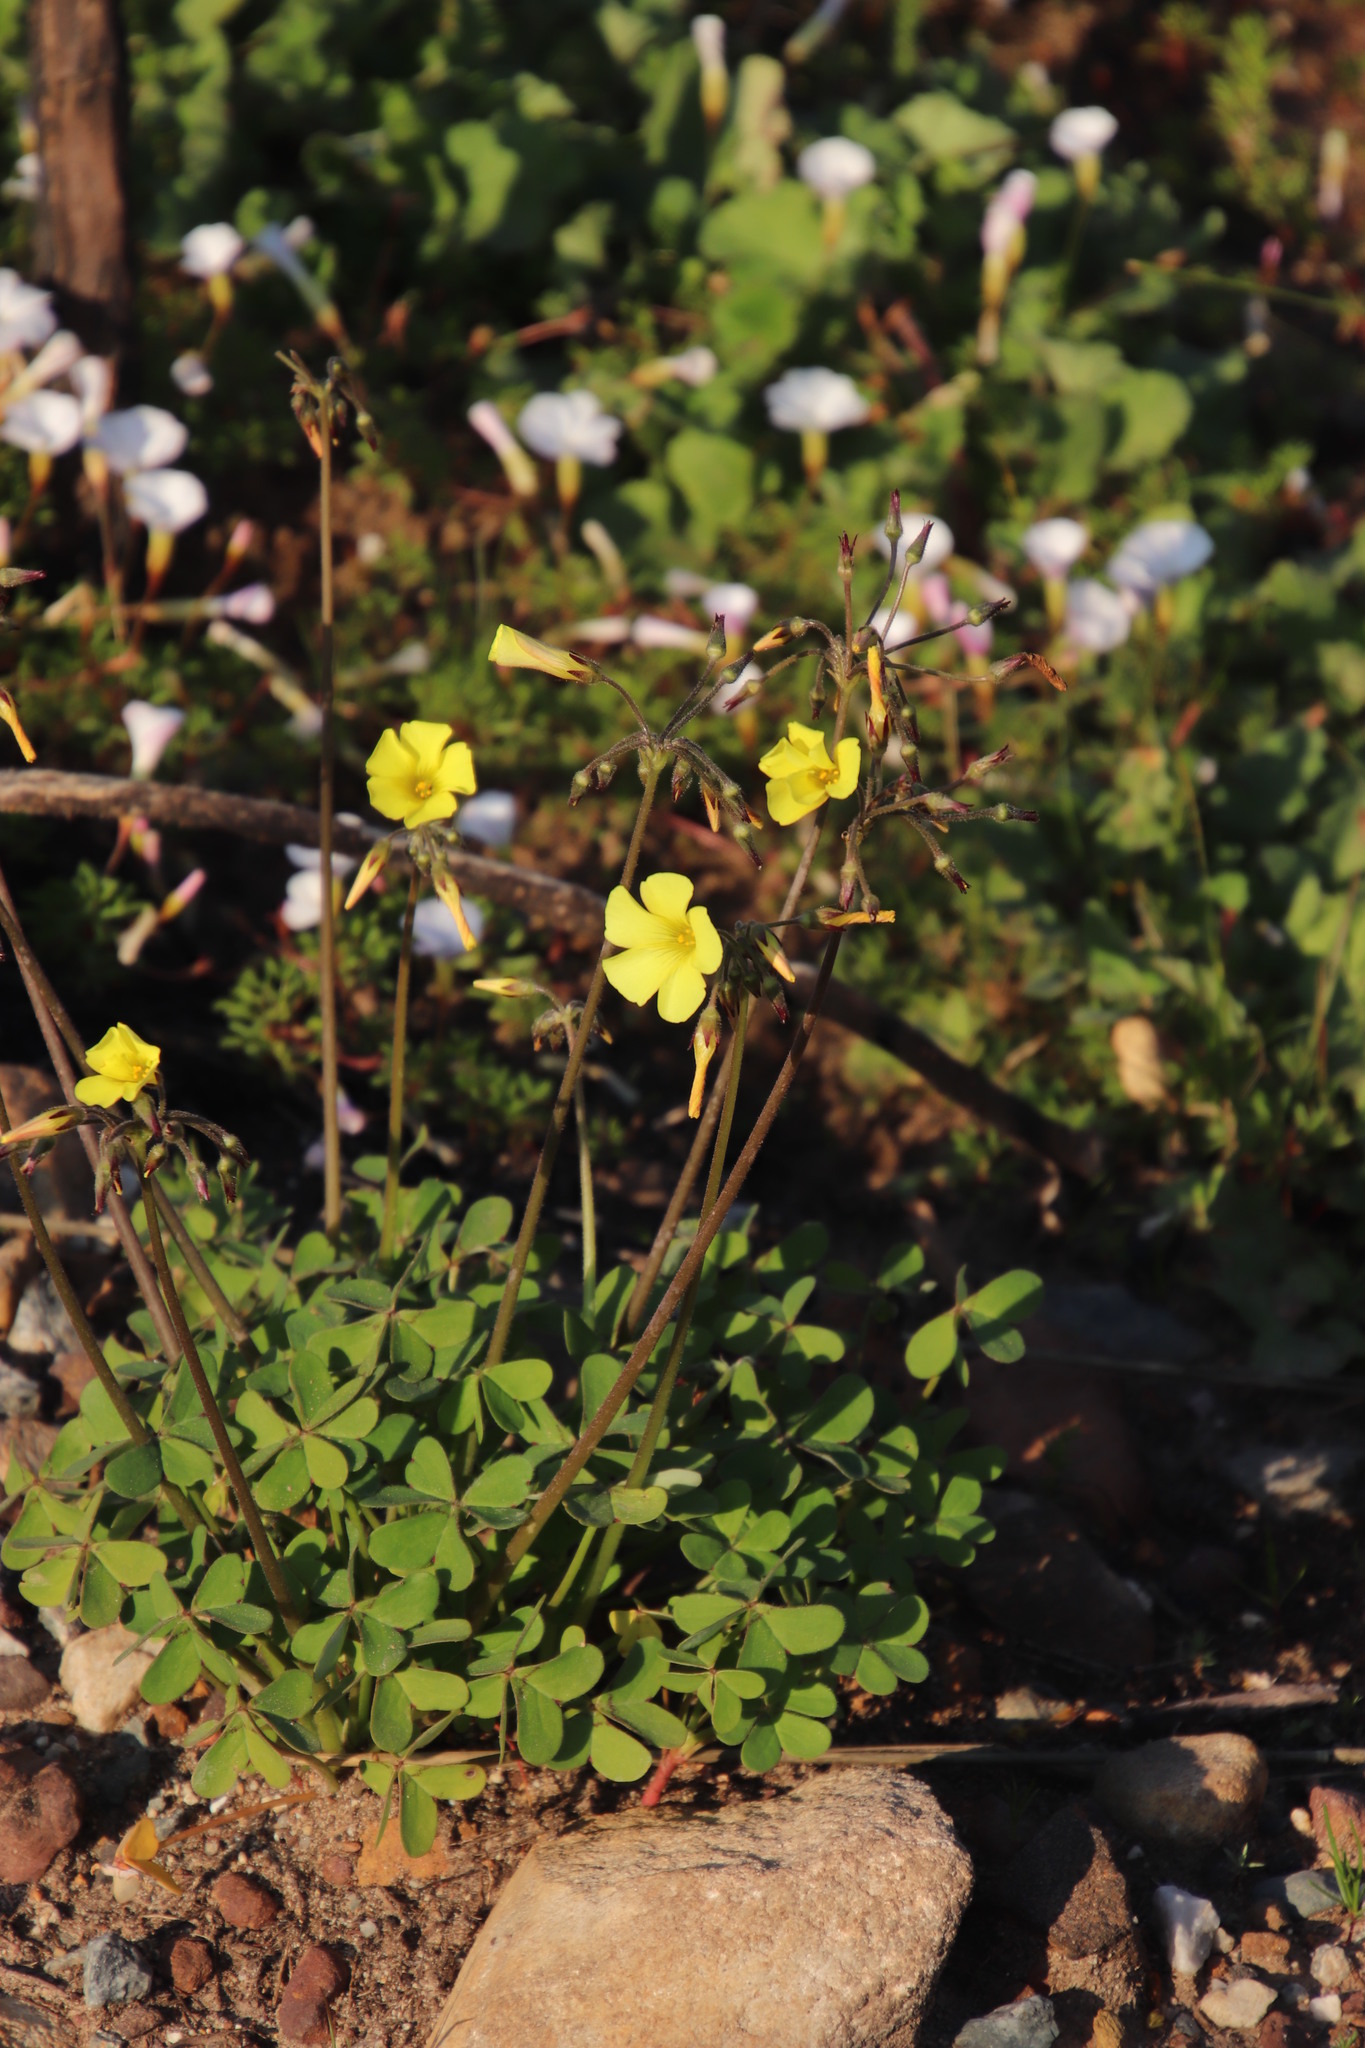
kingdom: Plantae
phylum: Tracheophyta
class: Magnoliopsida
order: Oxalidales
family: Oxalidaceae
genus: Oxalis
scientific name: Oxalis pes-caprae
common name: Bermuda-buttercup
